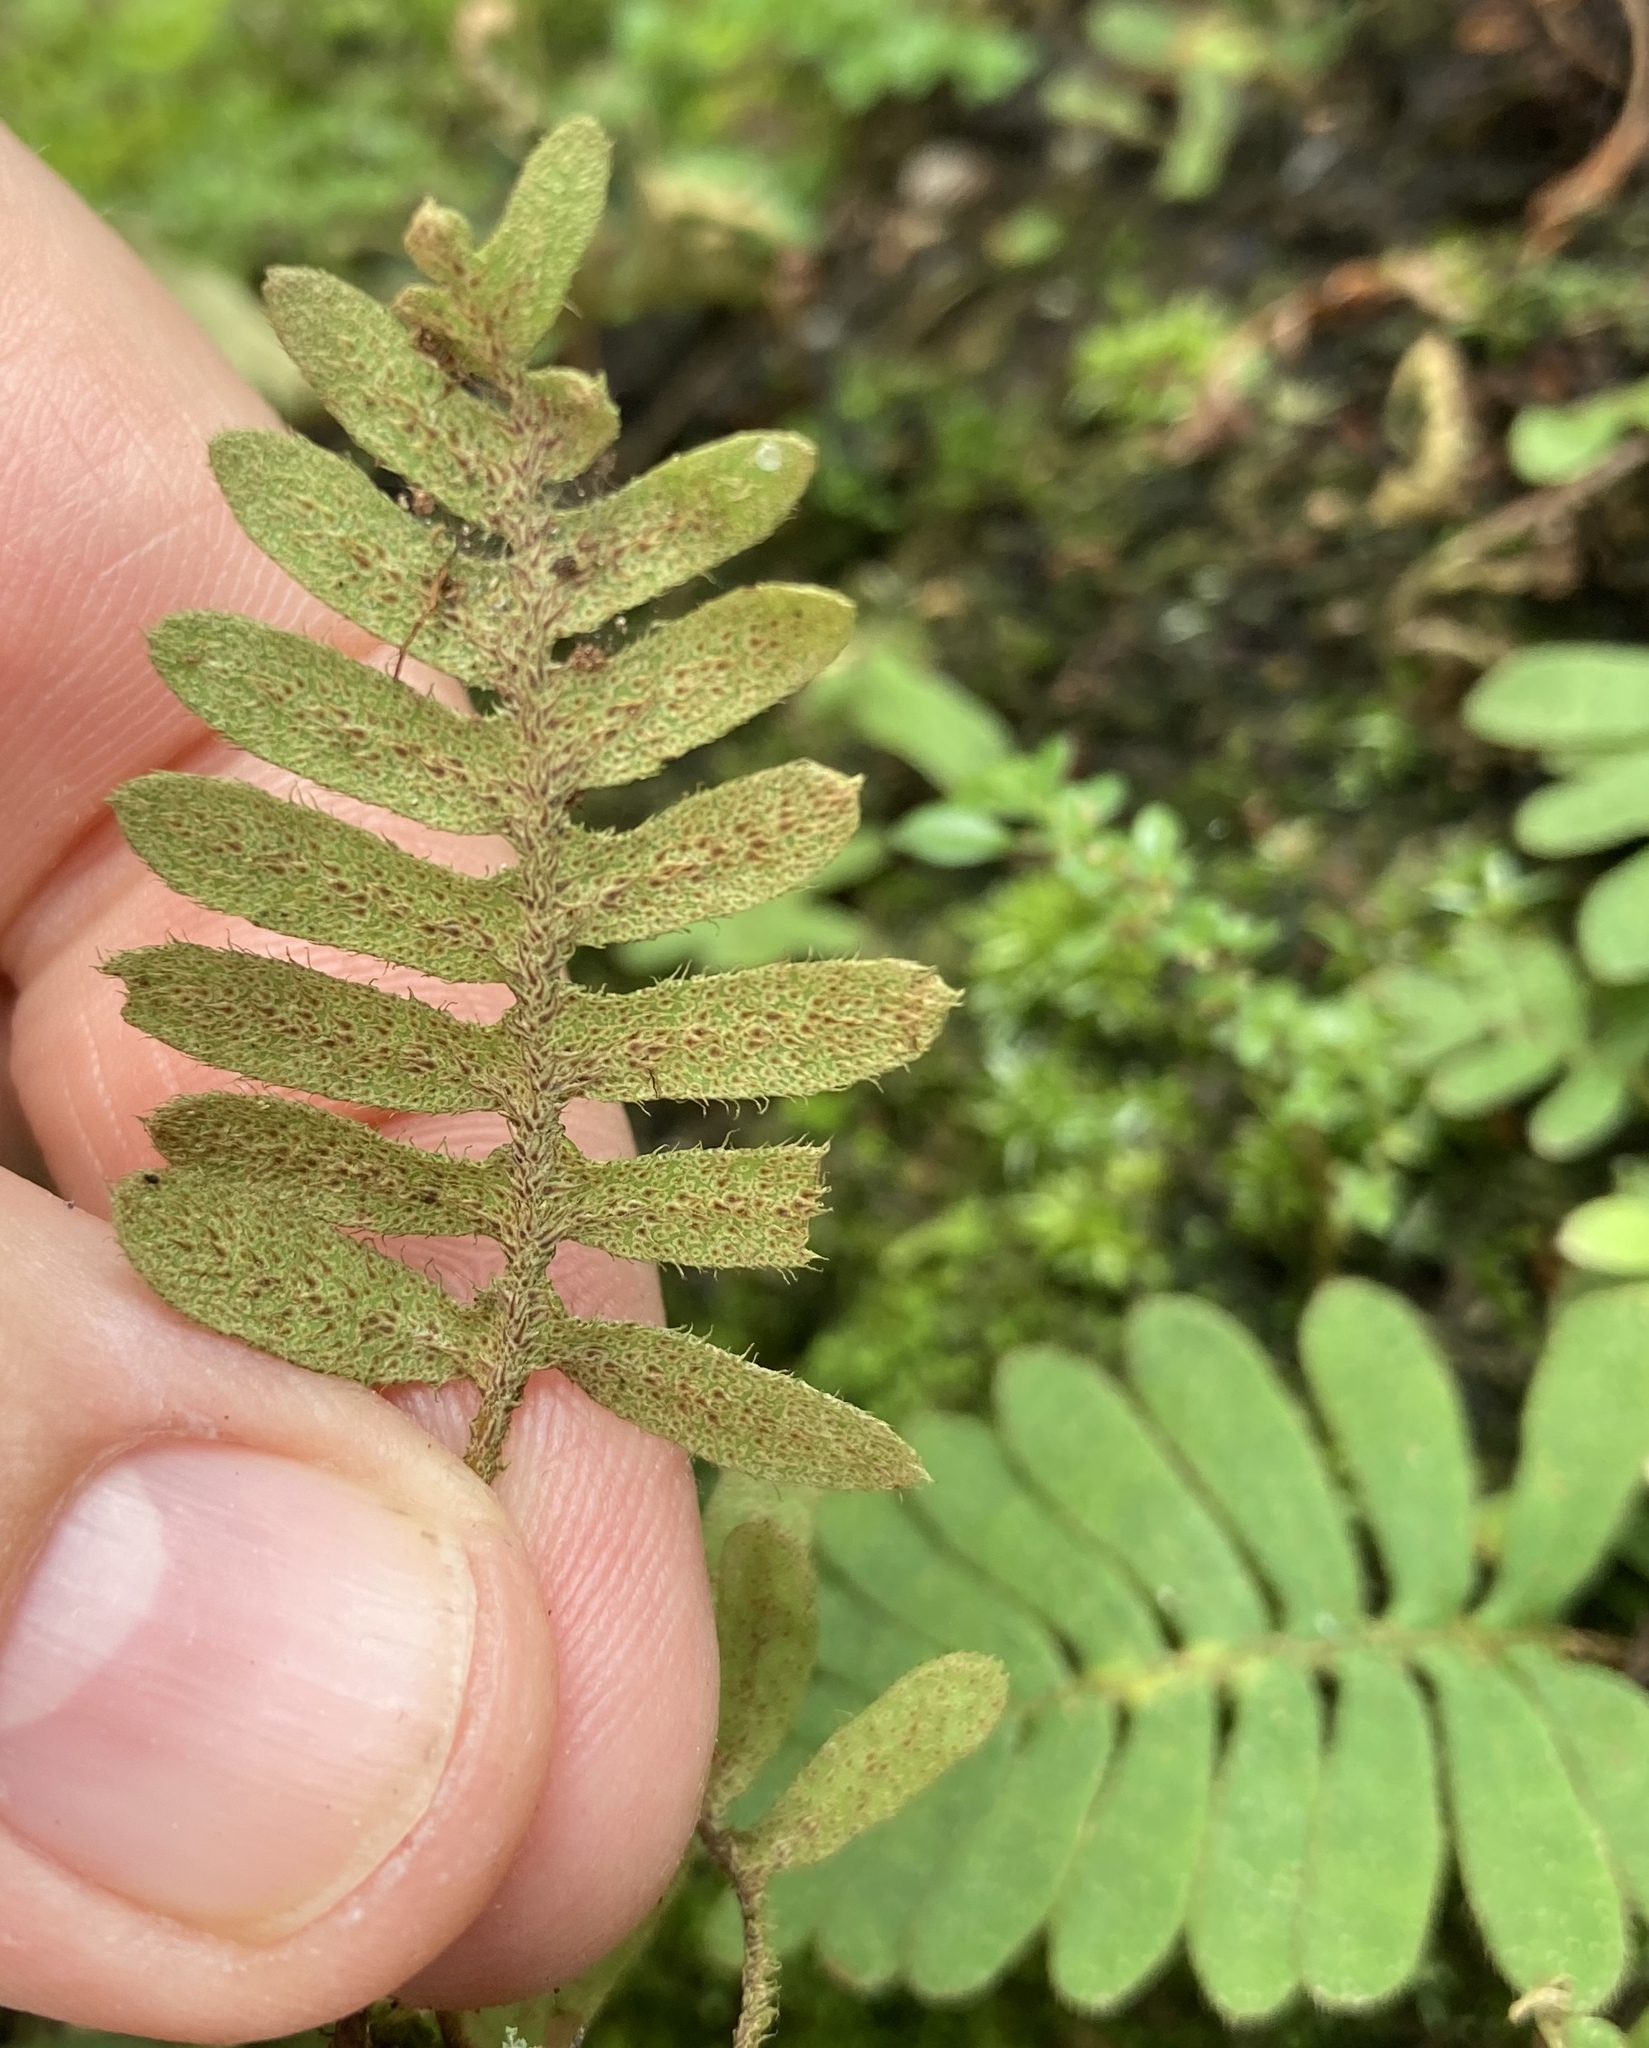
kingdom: Plantae
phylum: Tracheophyta
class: Polypodiopsida
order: Polypodiales
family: Polypodiaceae
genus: Pleopeltis
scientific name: Pleopeltis polypodioides
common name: Resurrection fern
